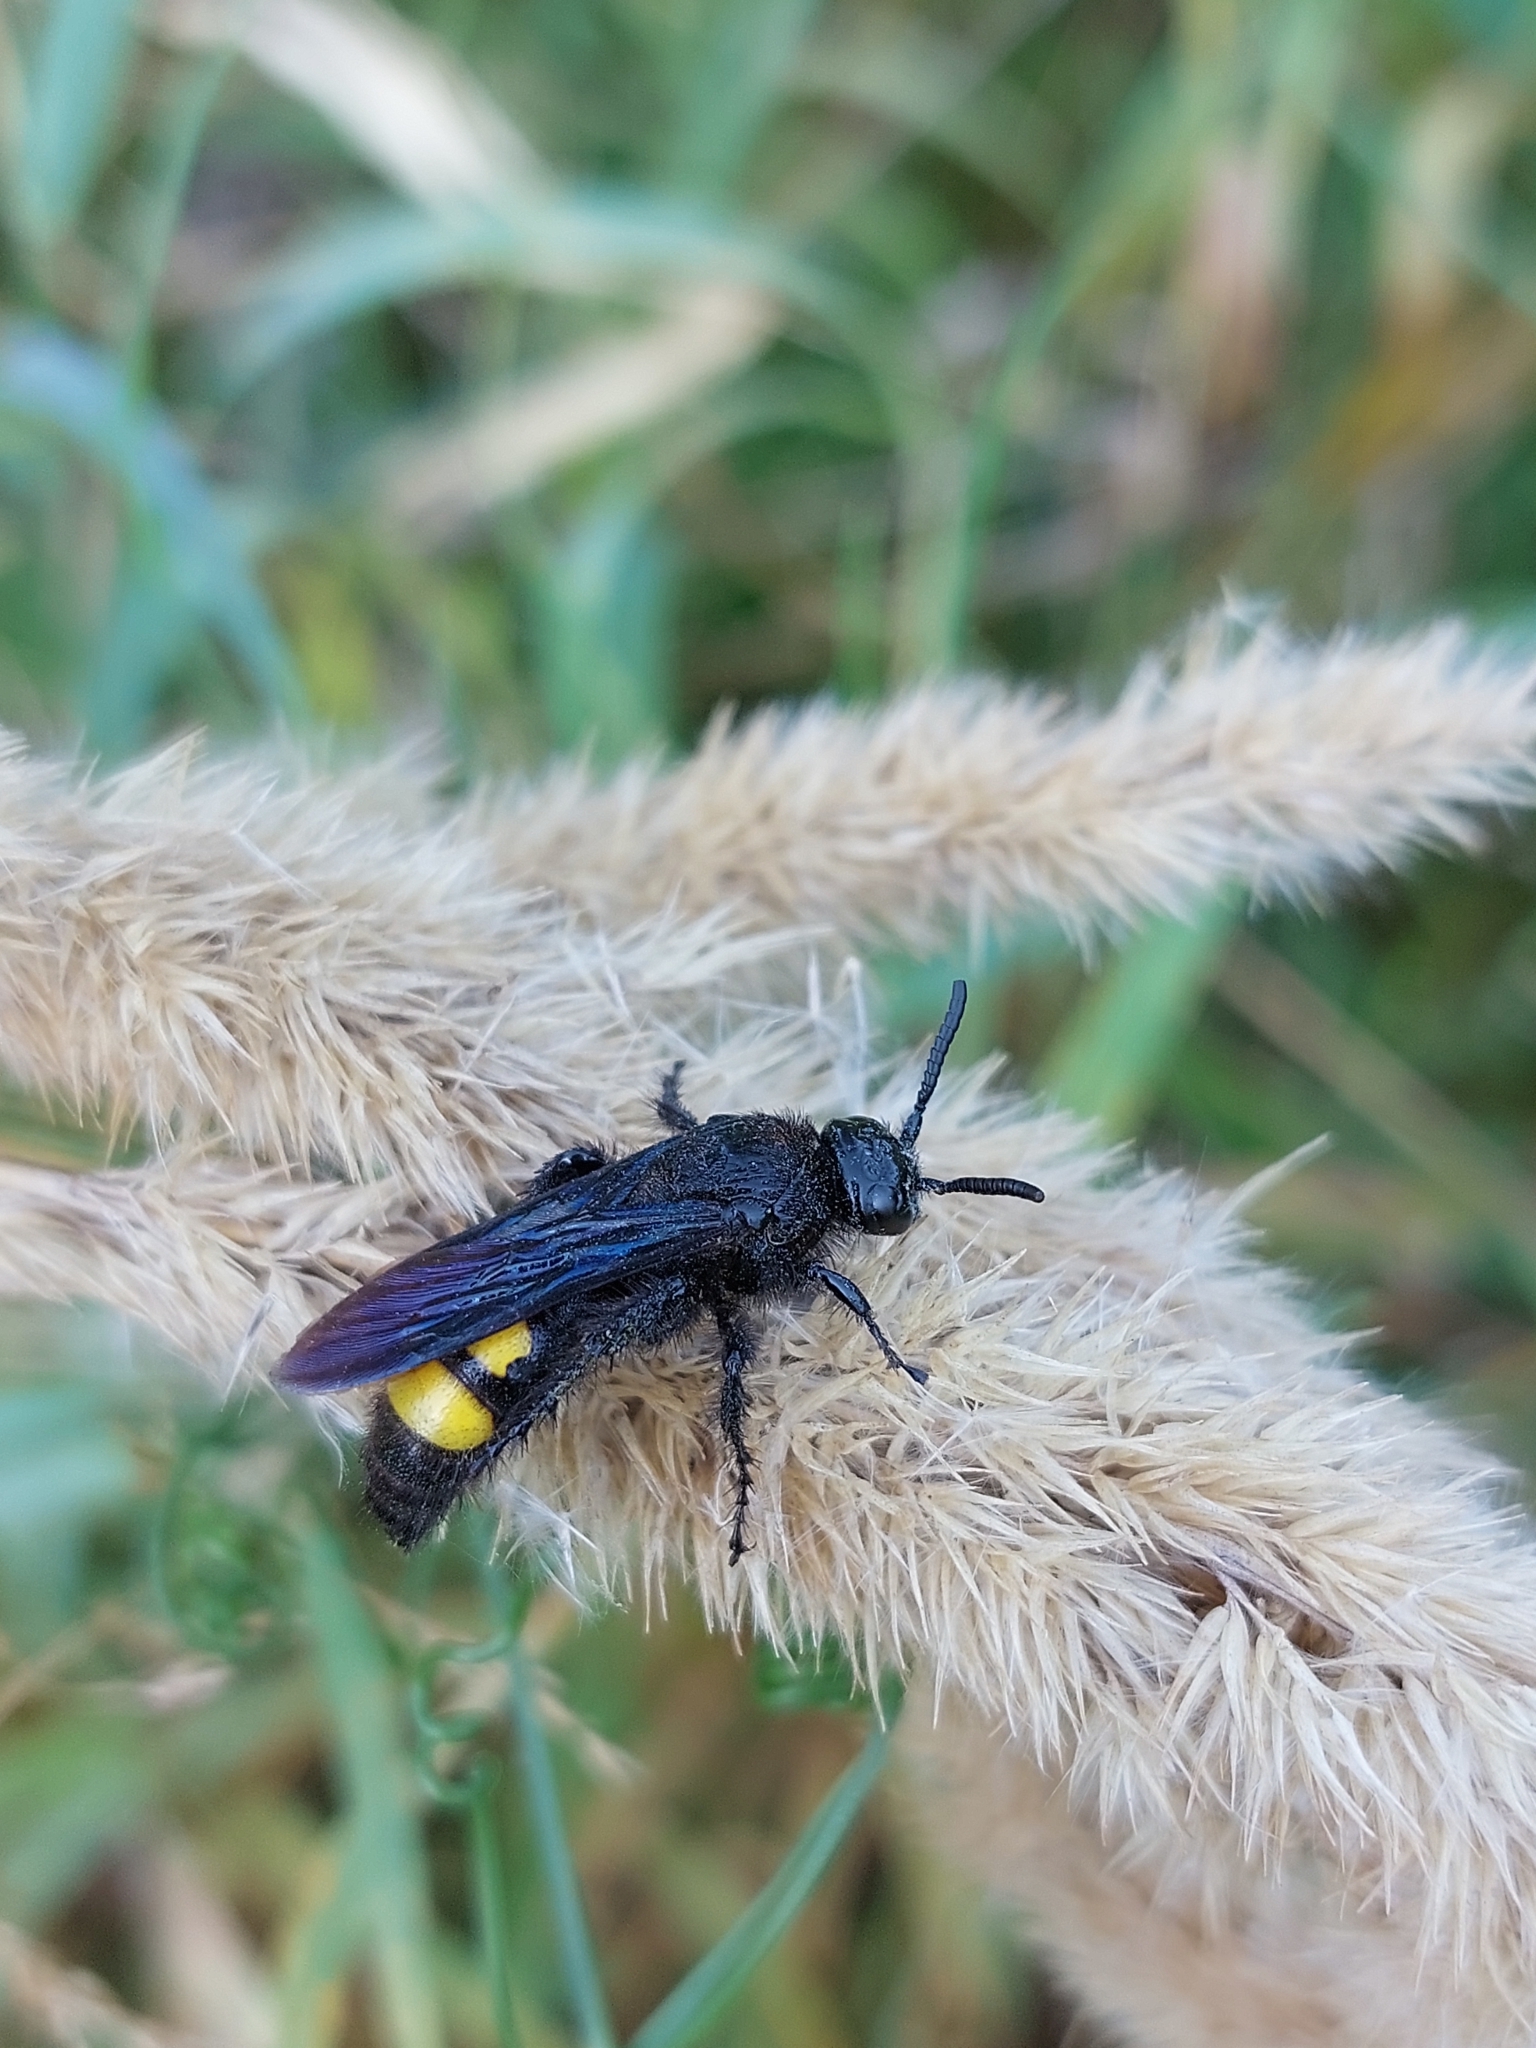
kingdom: Animalia
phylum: Arthropoda
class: Insecta
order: Hymenoptera
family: Scoliidae
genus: Scolia
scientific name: Scolia hirta
